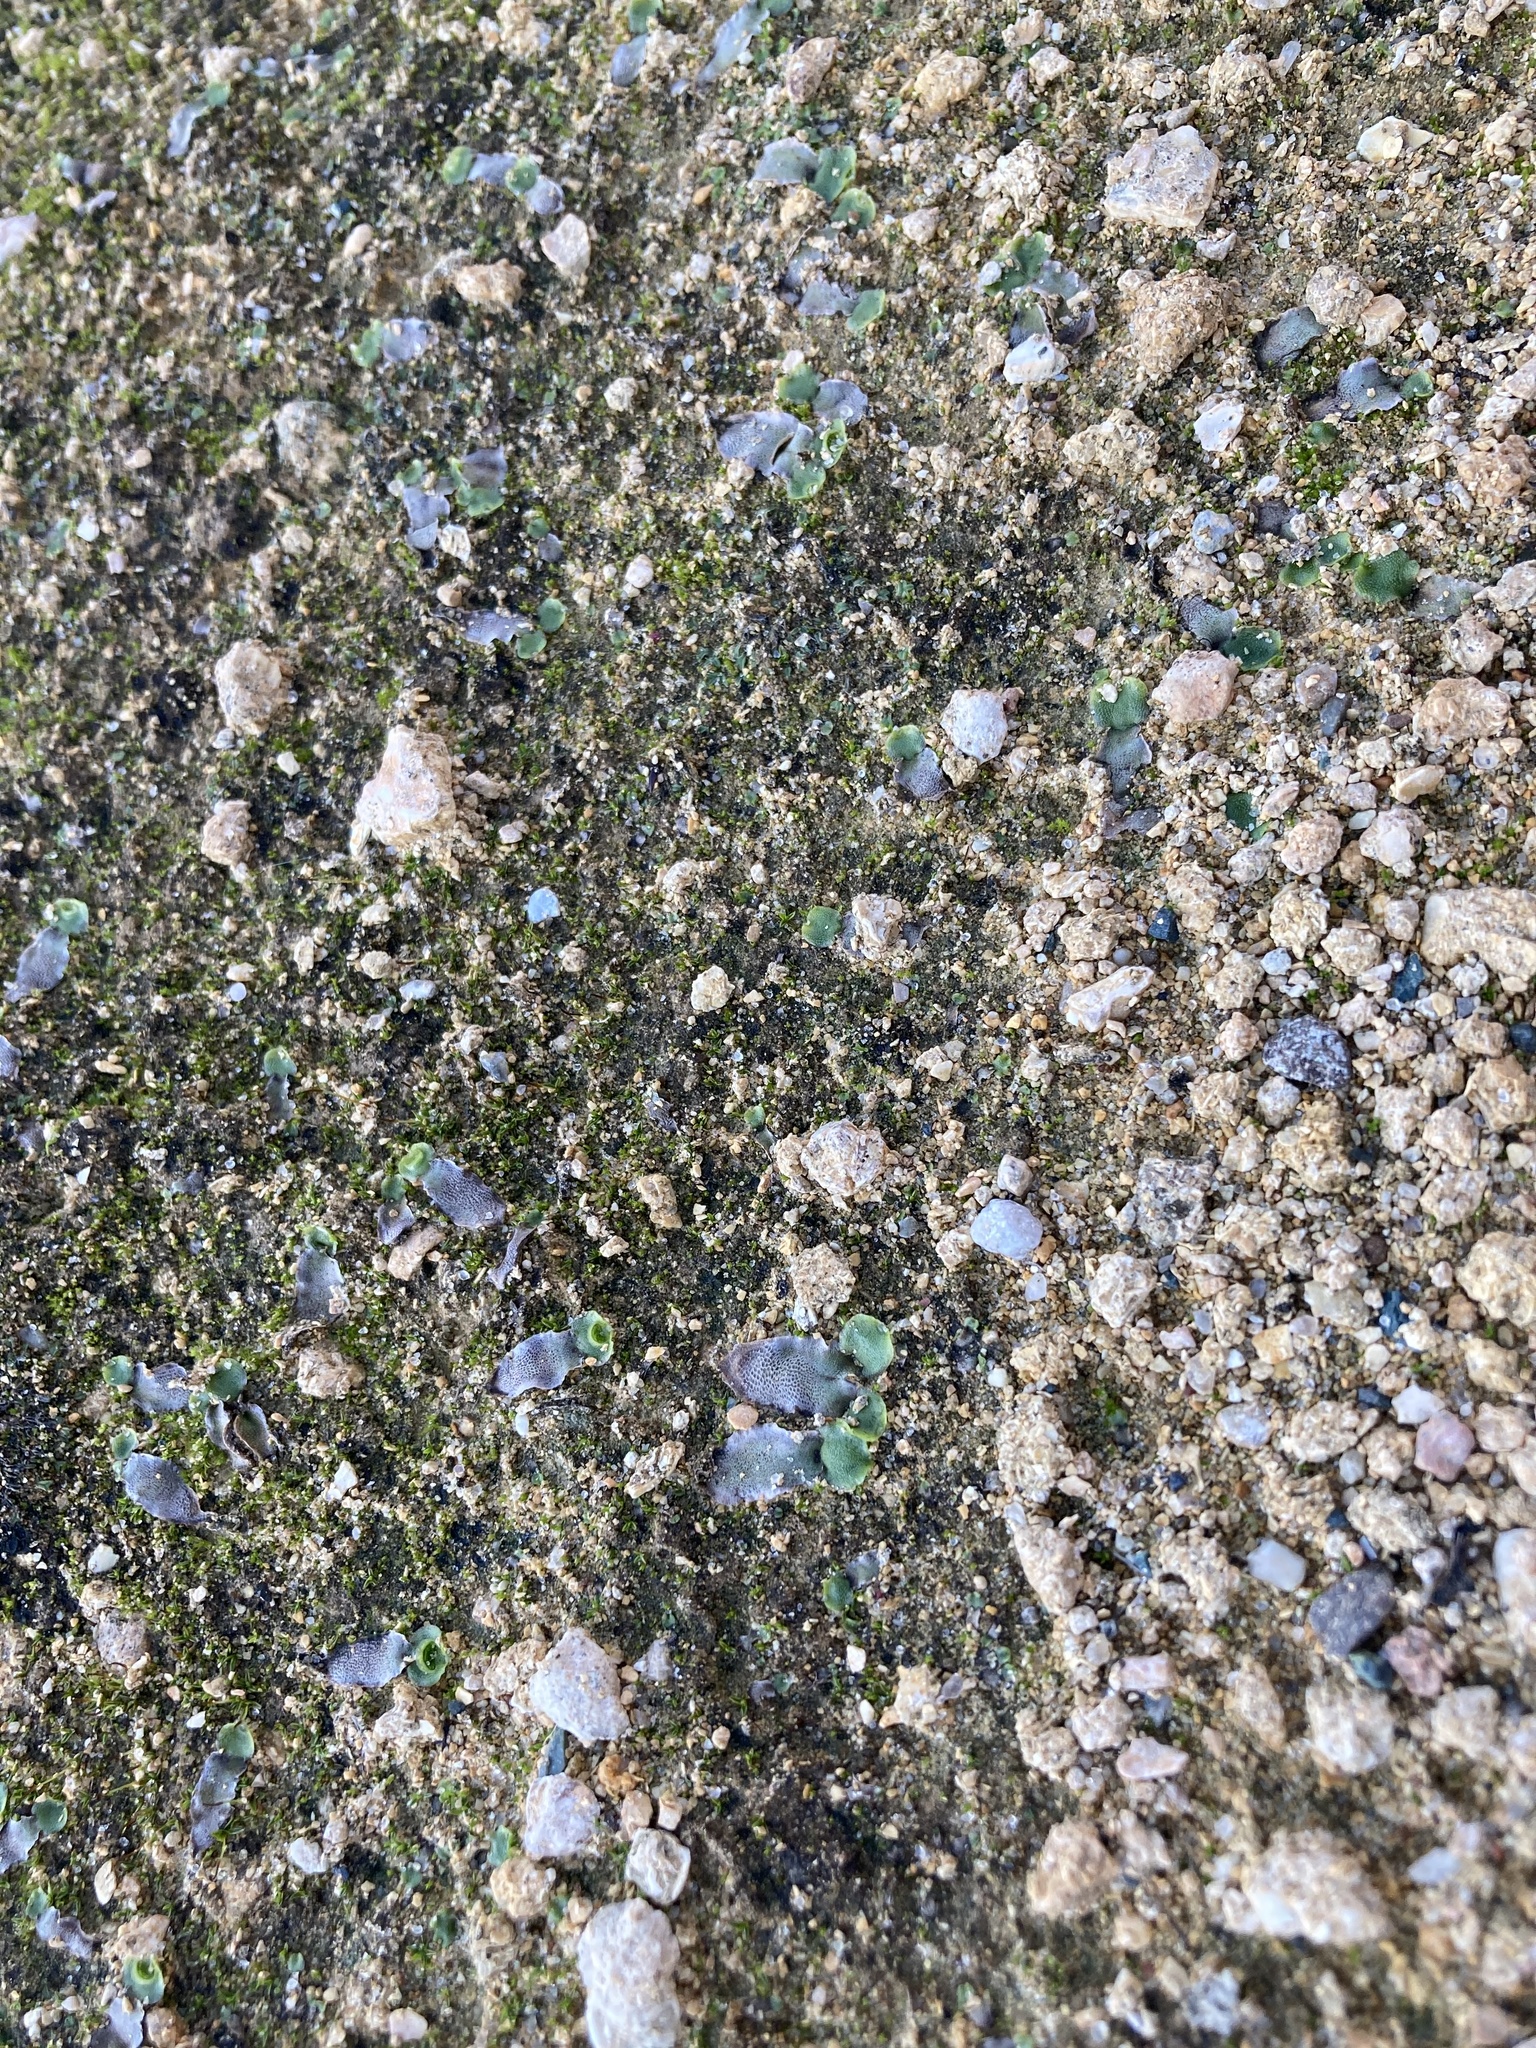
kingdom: Plantae
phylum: Marchantiophyta
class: Marchantiopsida
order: Lunulariales
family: Lunulariaceae
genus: Lunularia
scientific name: Lunularia cruciata
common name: Crescent-cup liverwort
